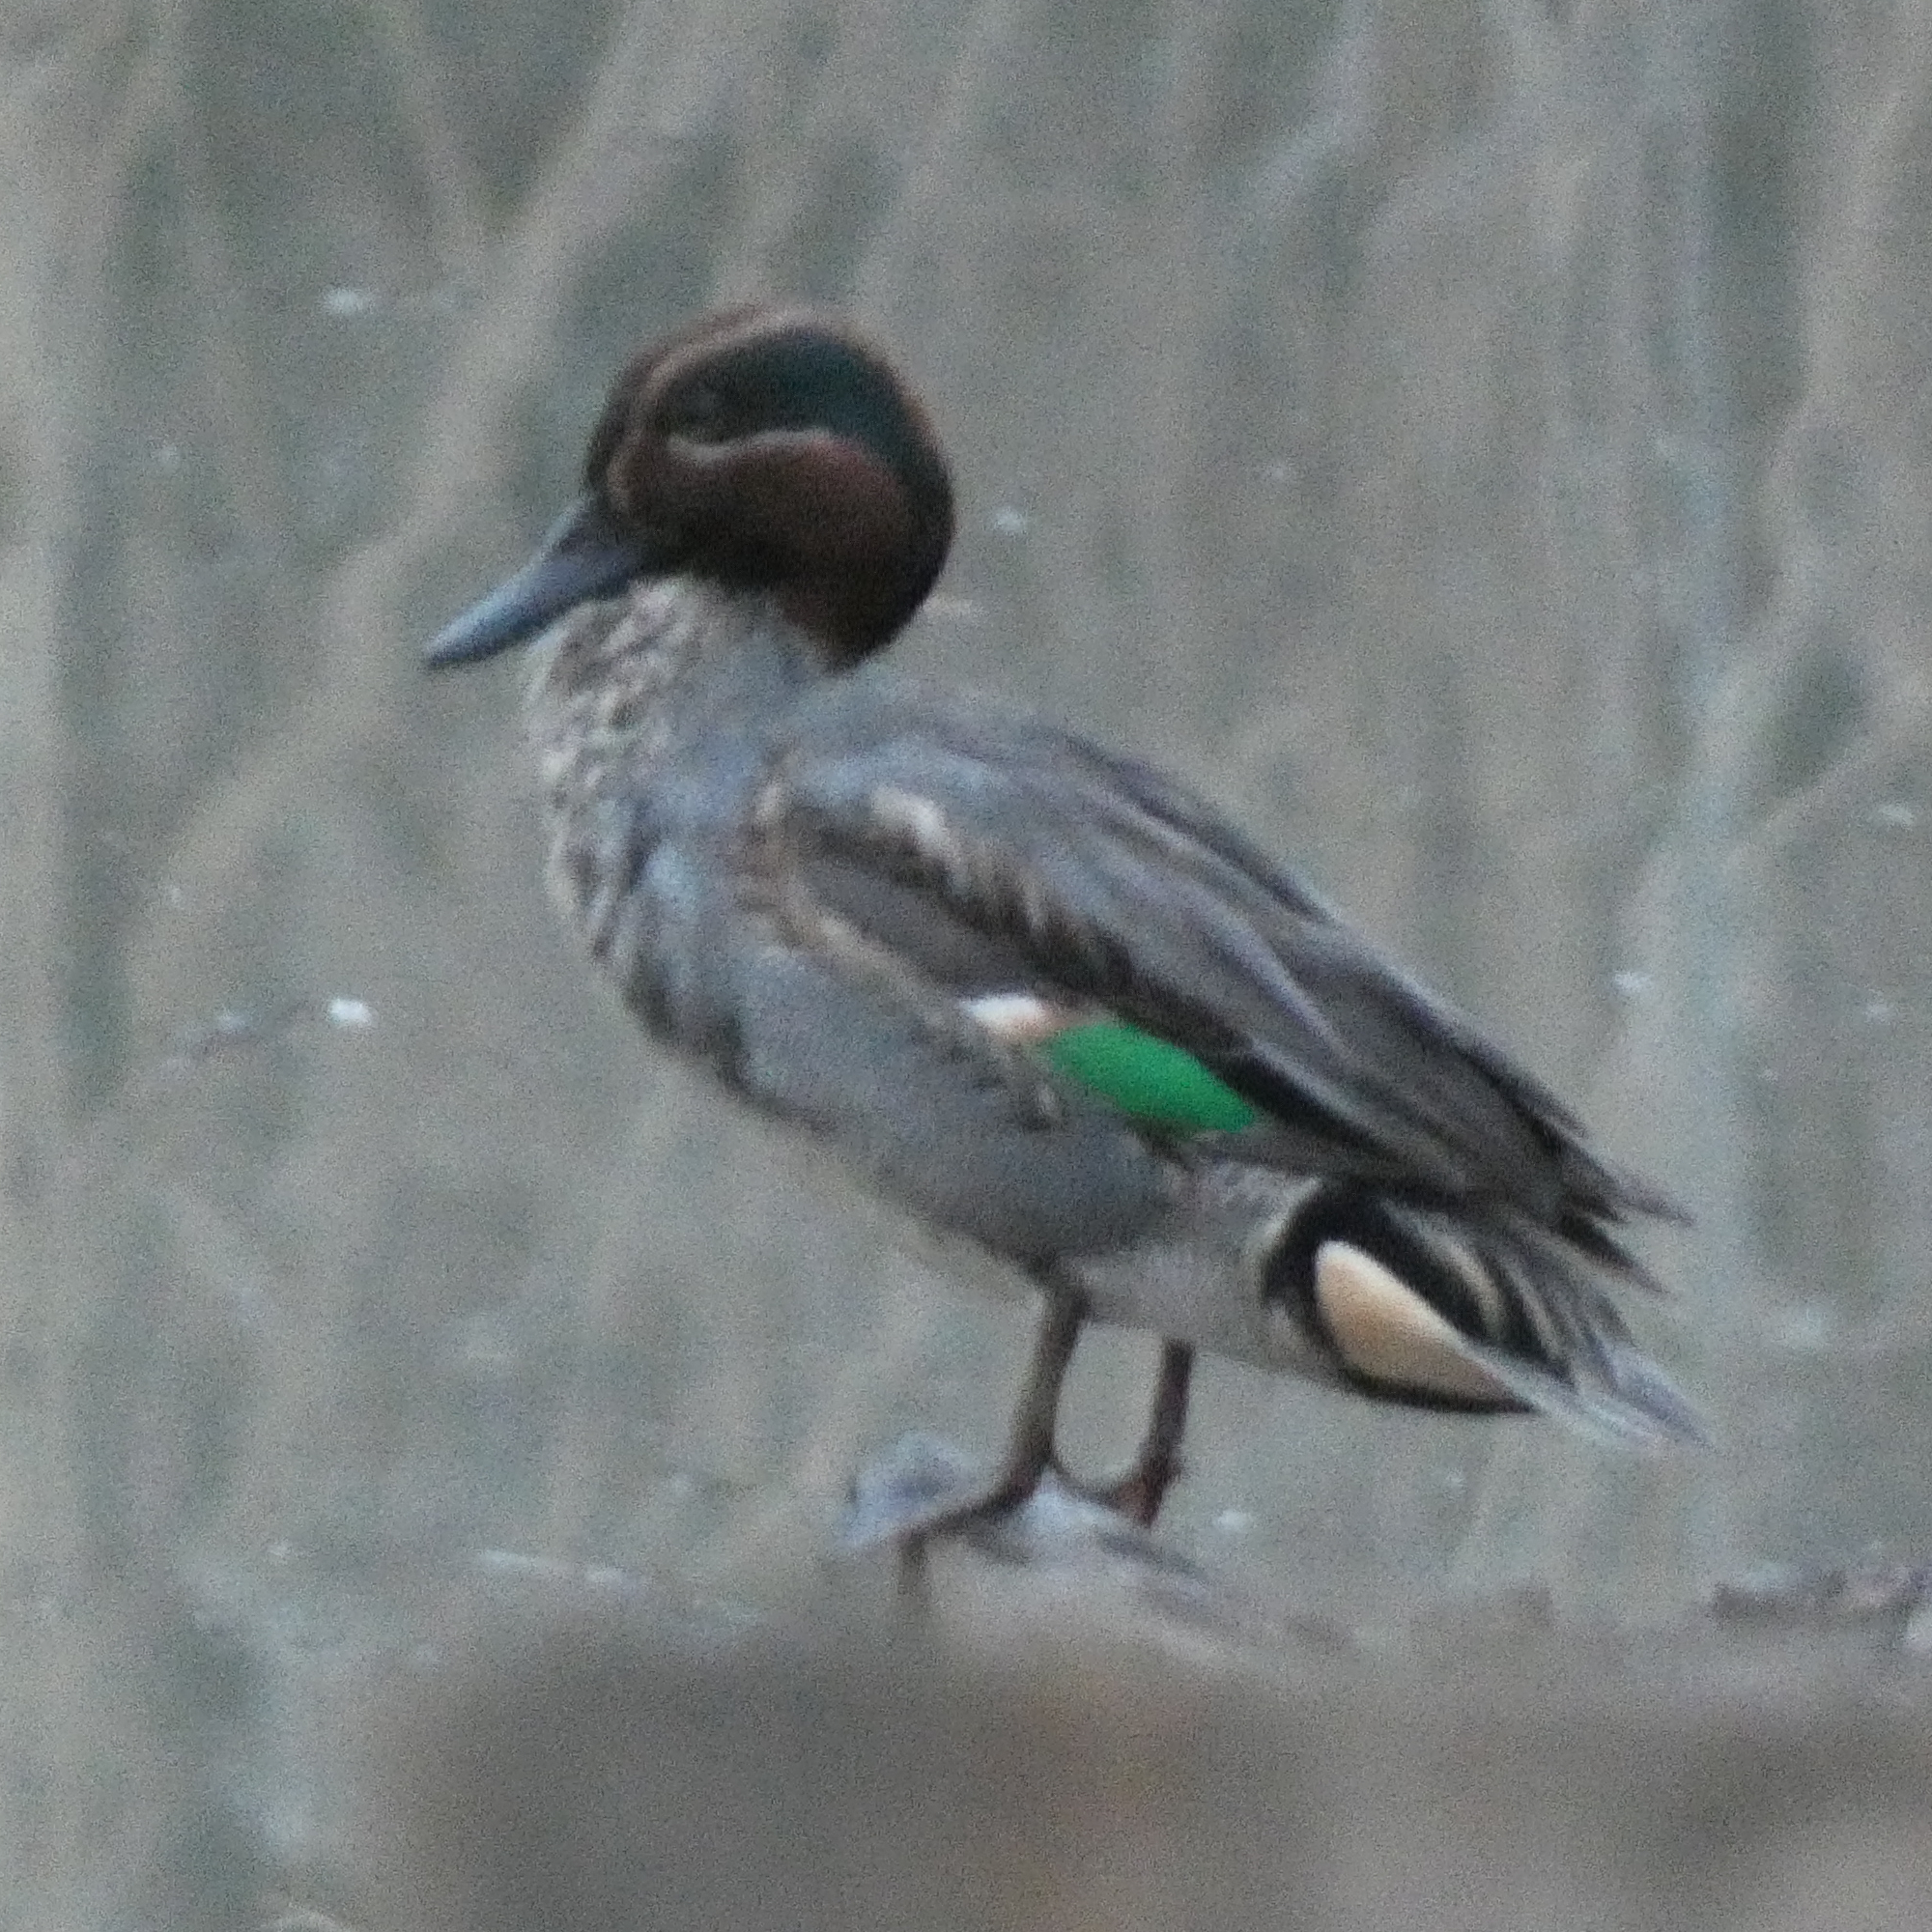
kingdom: Animalia
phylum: Chordata
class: Aves
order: Anseriformes
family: Anatidae
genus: Anas
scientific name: Anas crecca
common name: Eurasian teal
